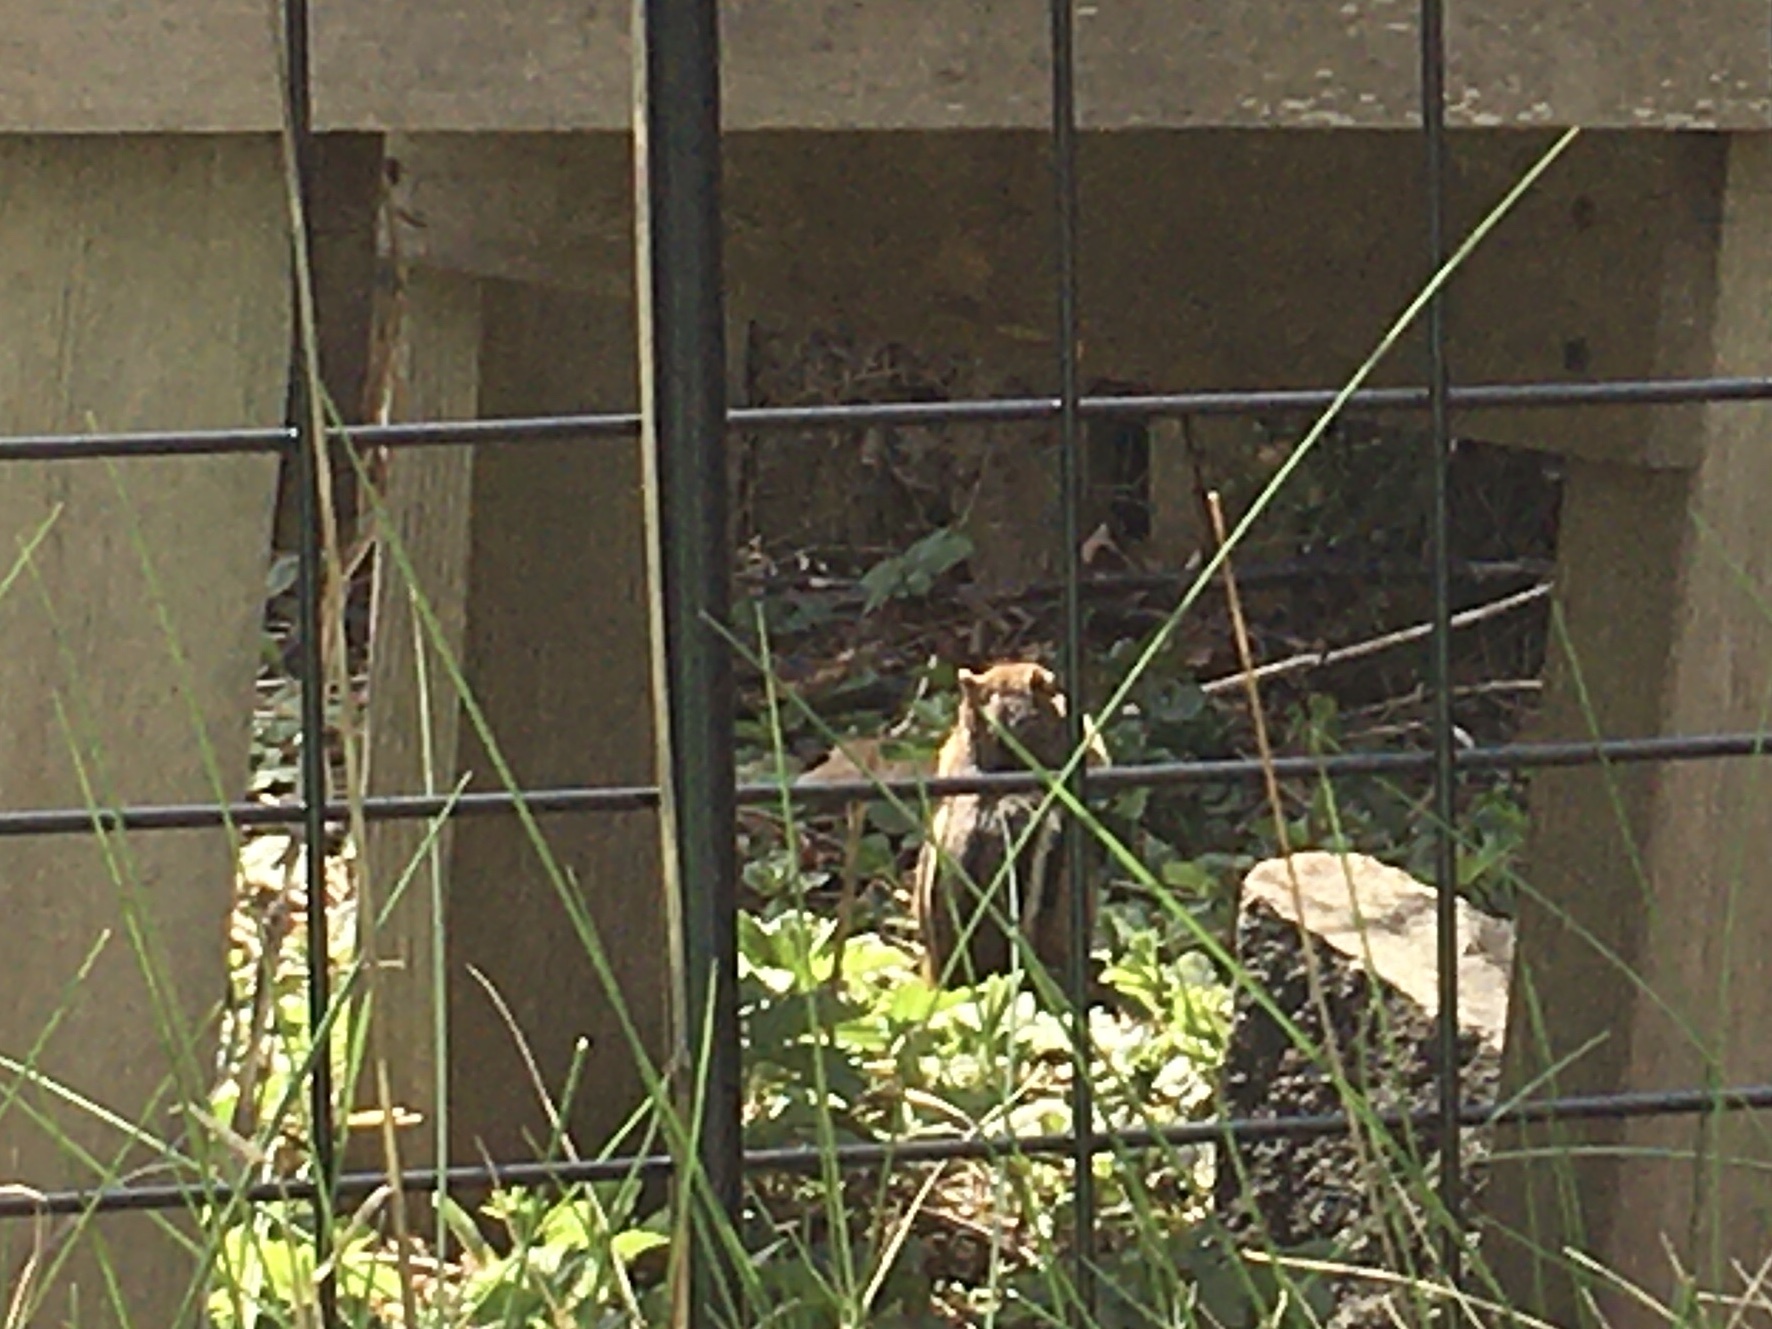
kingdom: Animalia
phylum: Chordata
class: Mammalia
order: Rodentia
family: Sciuridae
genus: Tamias
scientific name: Tamias striatus
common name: Eastern chipmunk
